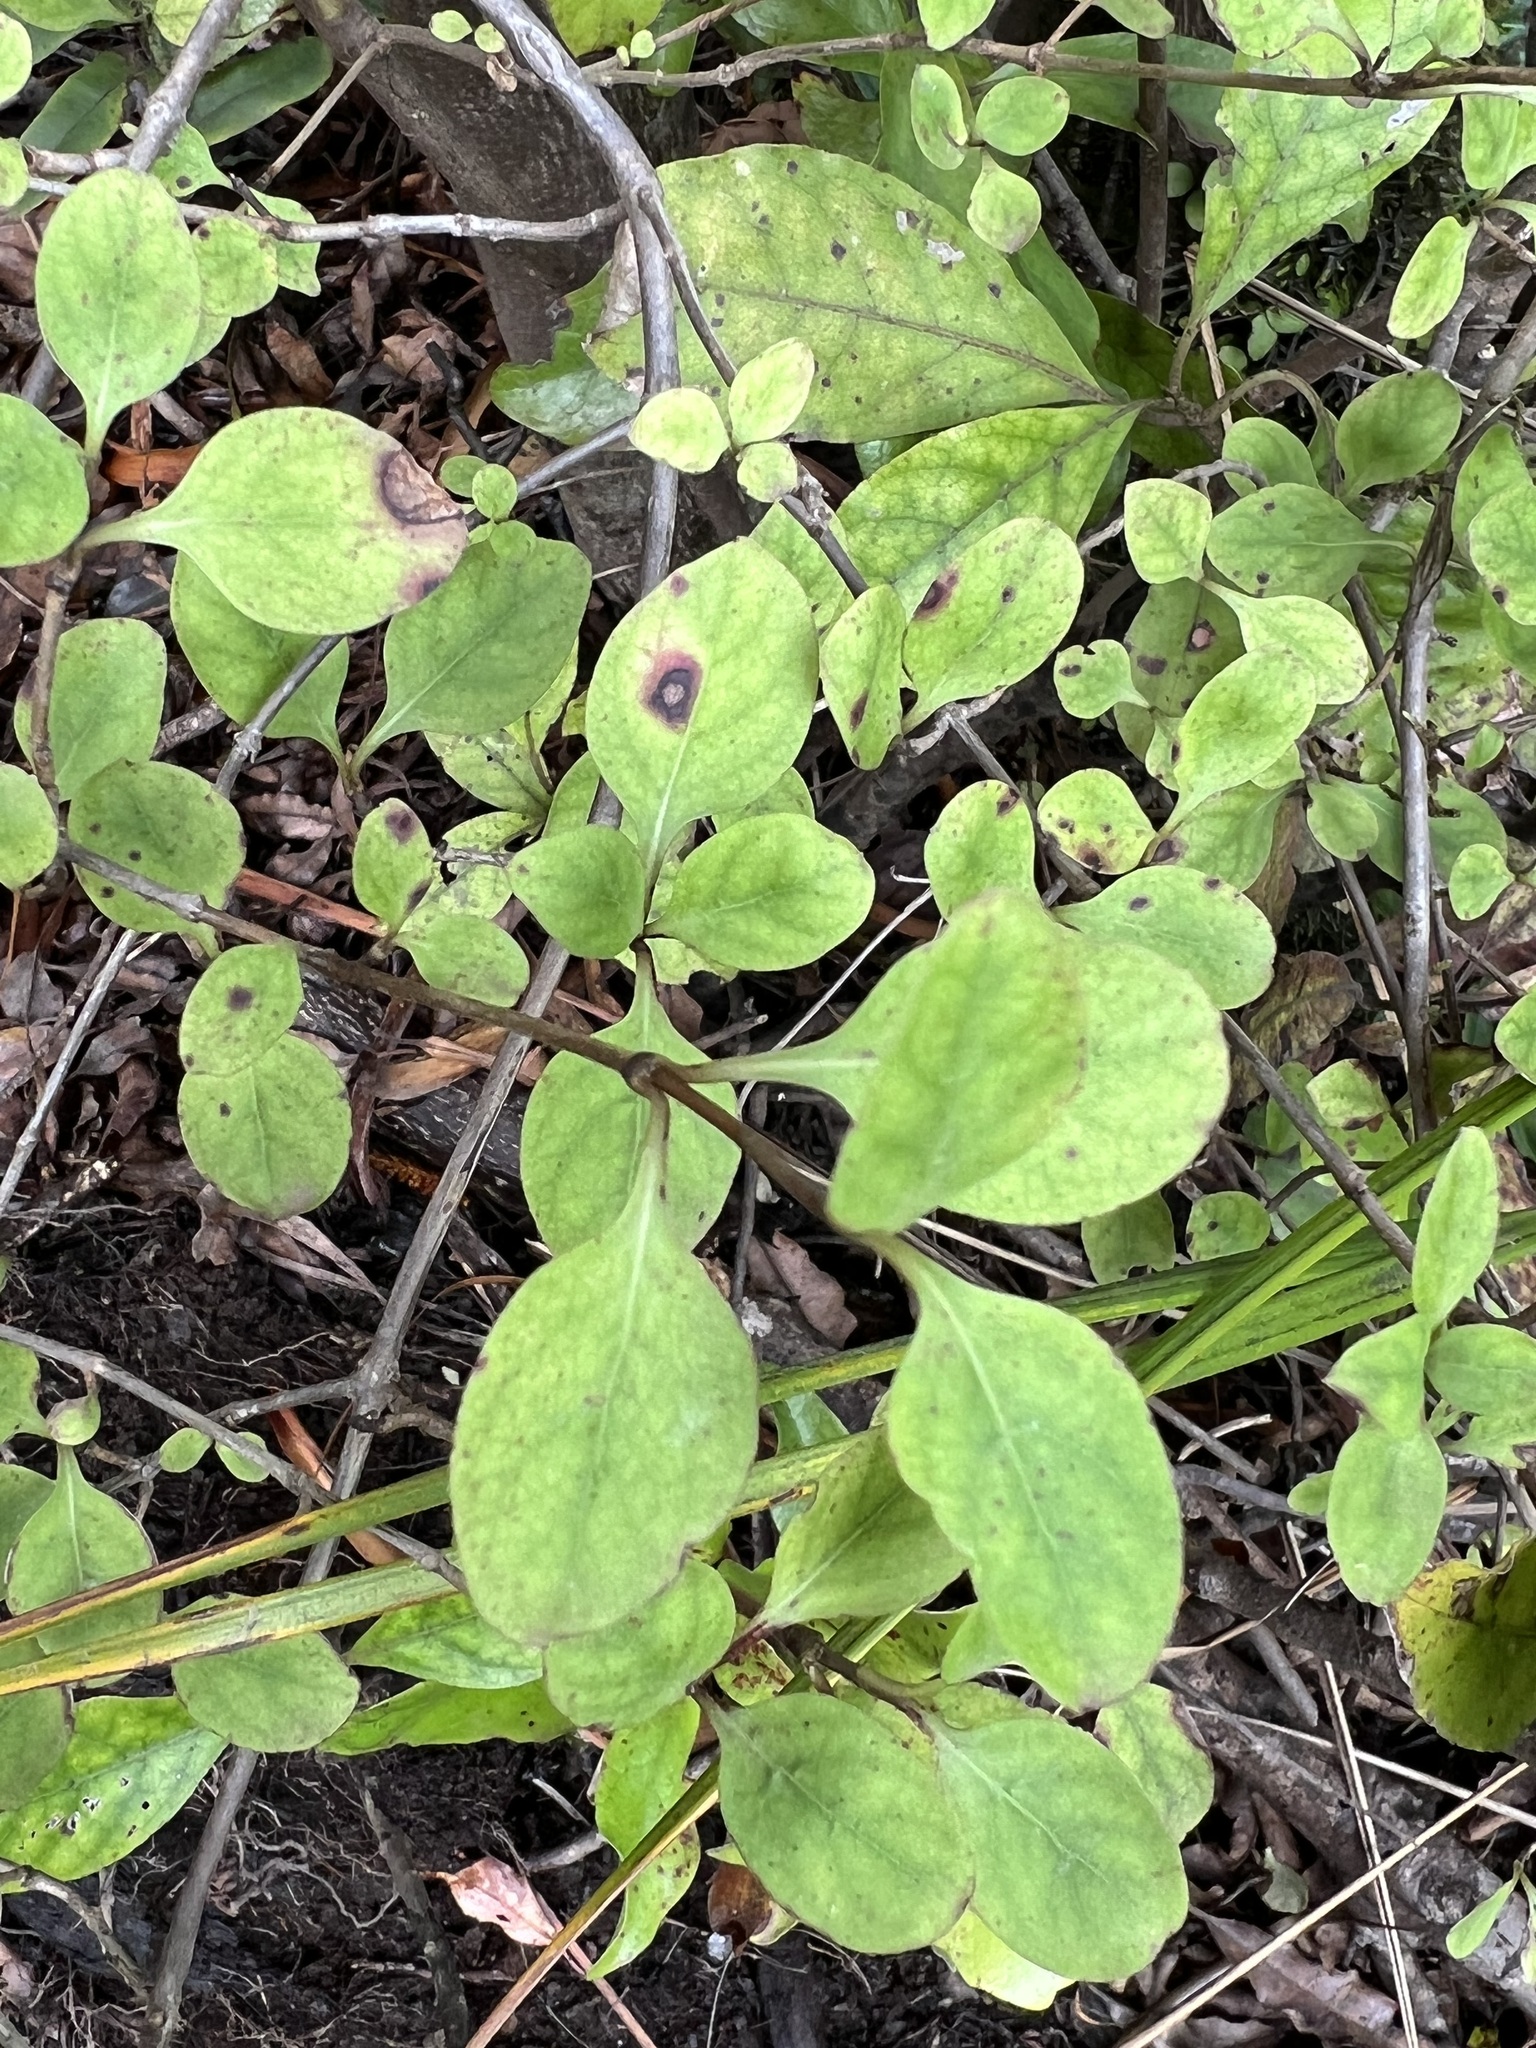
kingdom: Plantae
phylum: Tracheophyta
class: Magnoliopsida
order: Gentianales
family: Rubiaceae
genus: Coprosma
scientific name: Coprosma foetidissima
